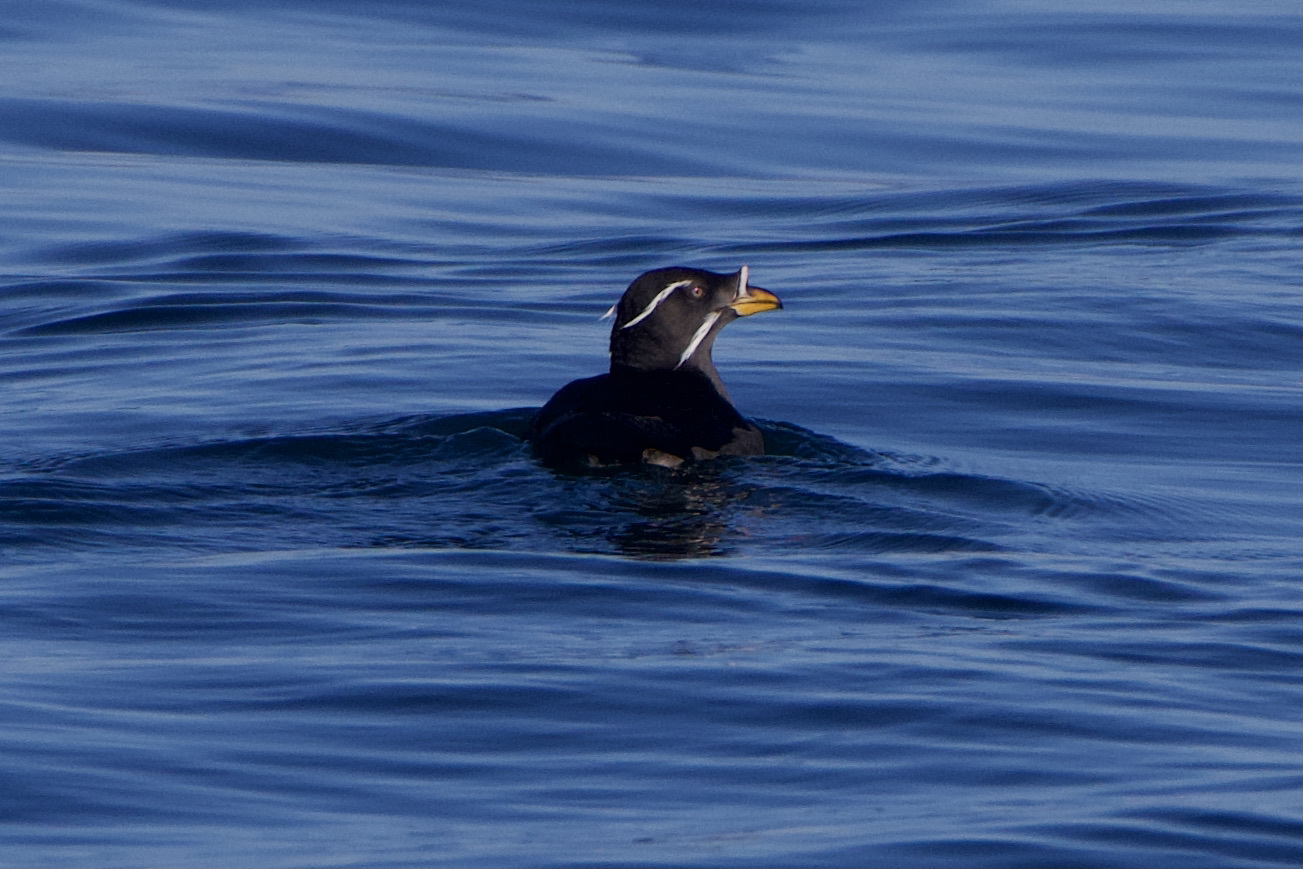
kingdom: Animalia
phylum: Chordata
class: Aves
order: Charadriiformes
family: Alcidae
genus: Cerorhinca
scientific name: Cerorhinca monocerata
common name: Rhinoceros auklet
